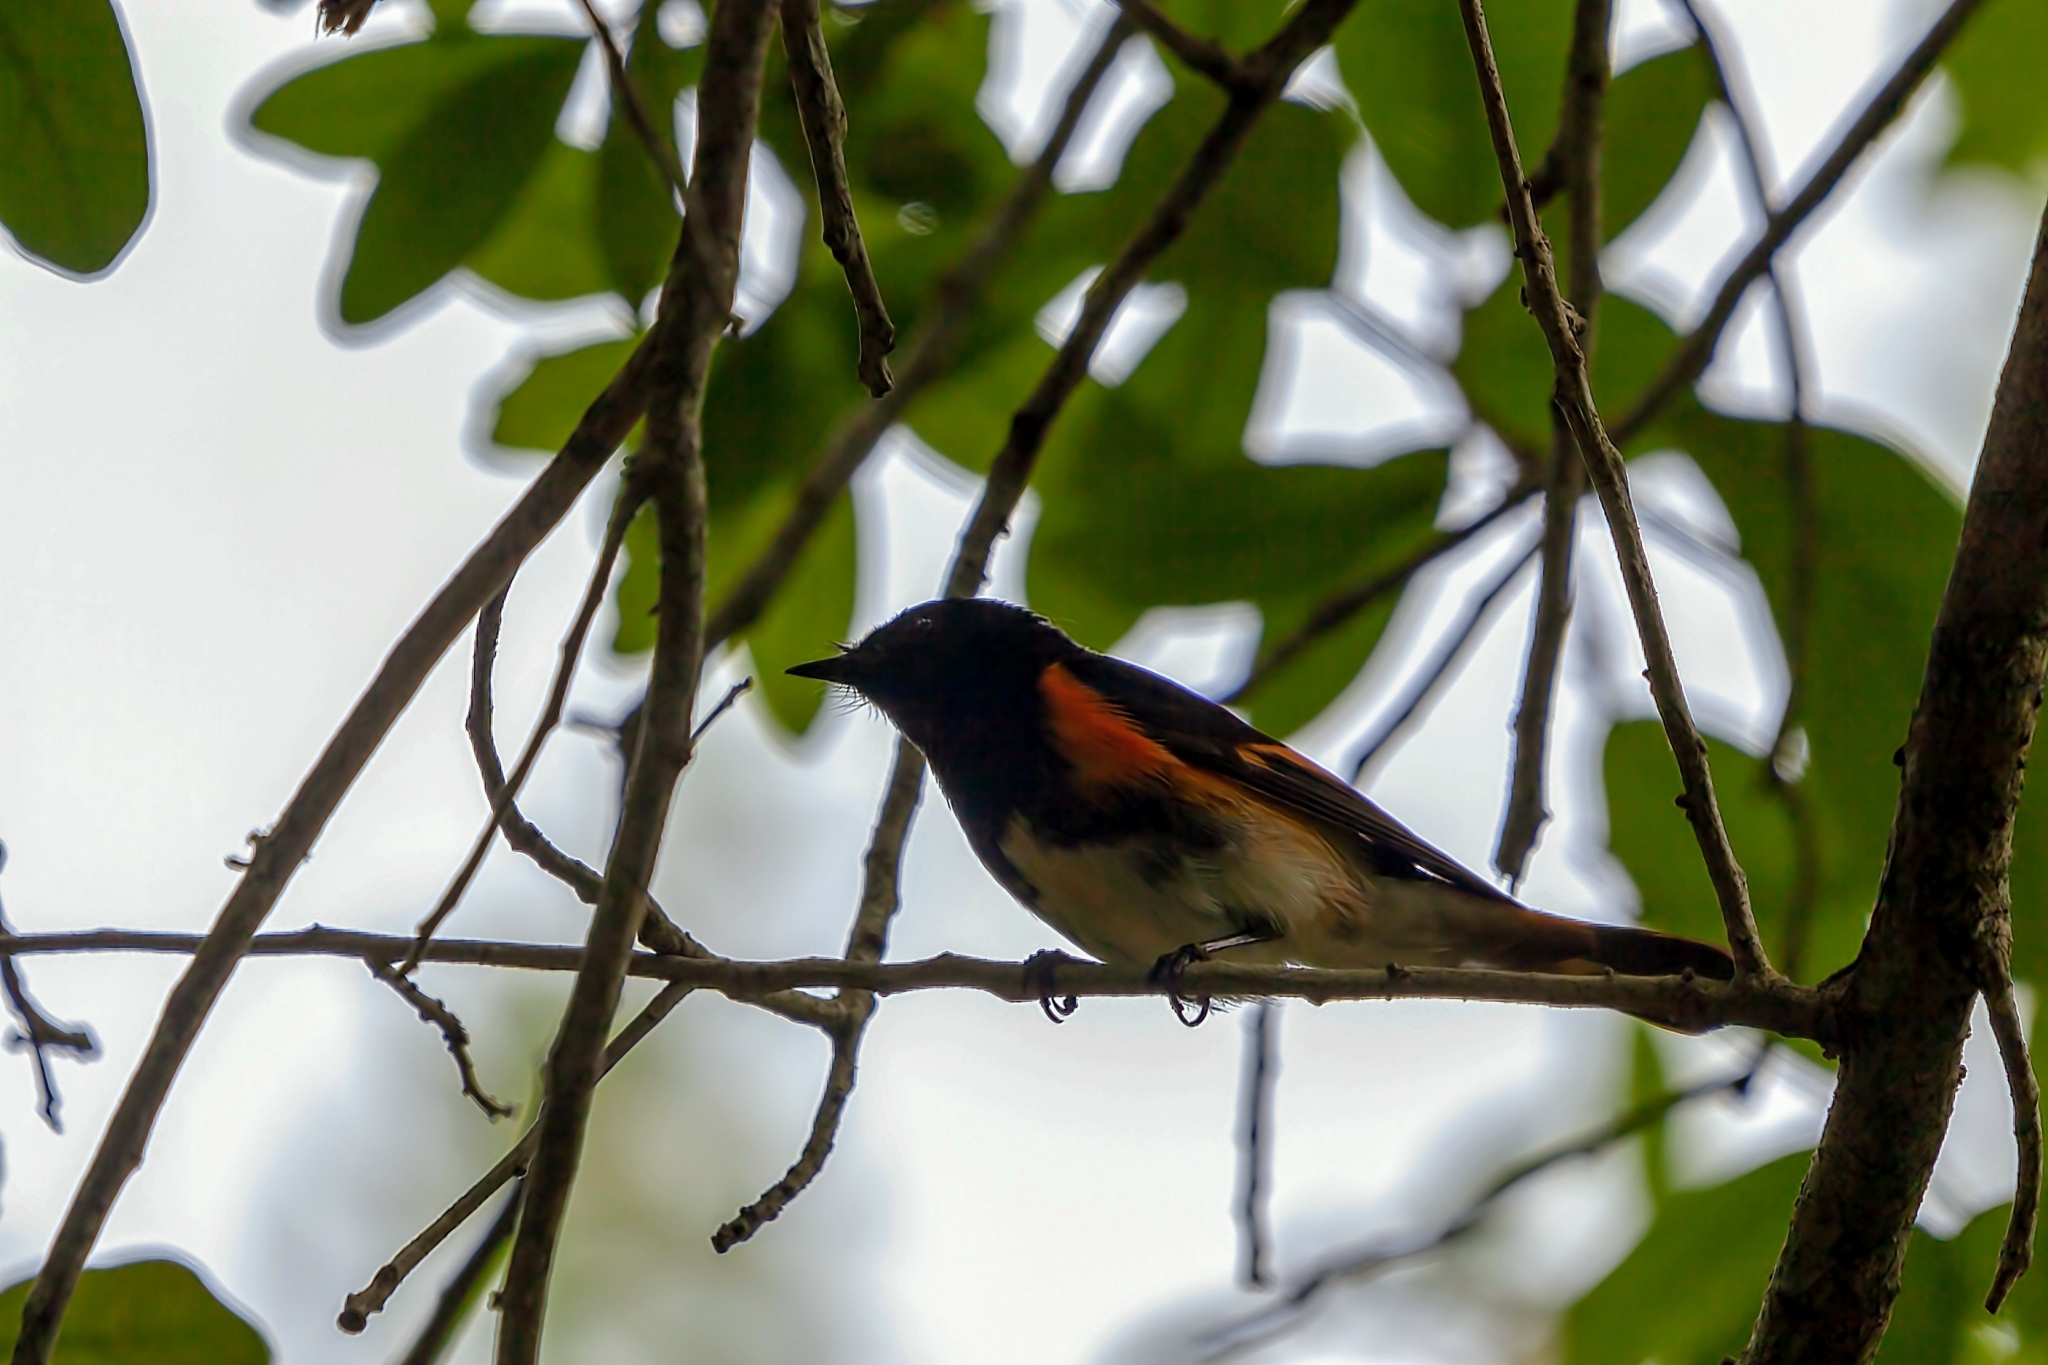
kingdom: Animalia
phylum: Chordata
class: Aves
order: Passeriformes
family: Parulidae
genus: Setophaga
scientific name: Setophaga ruticilla
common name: American redstart
